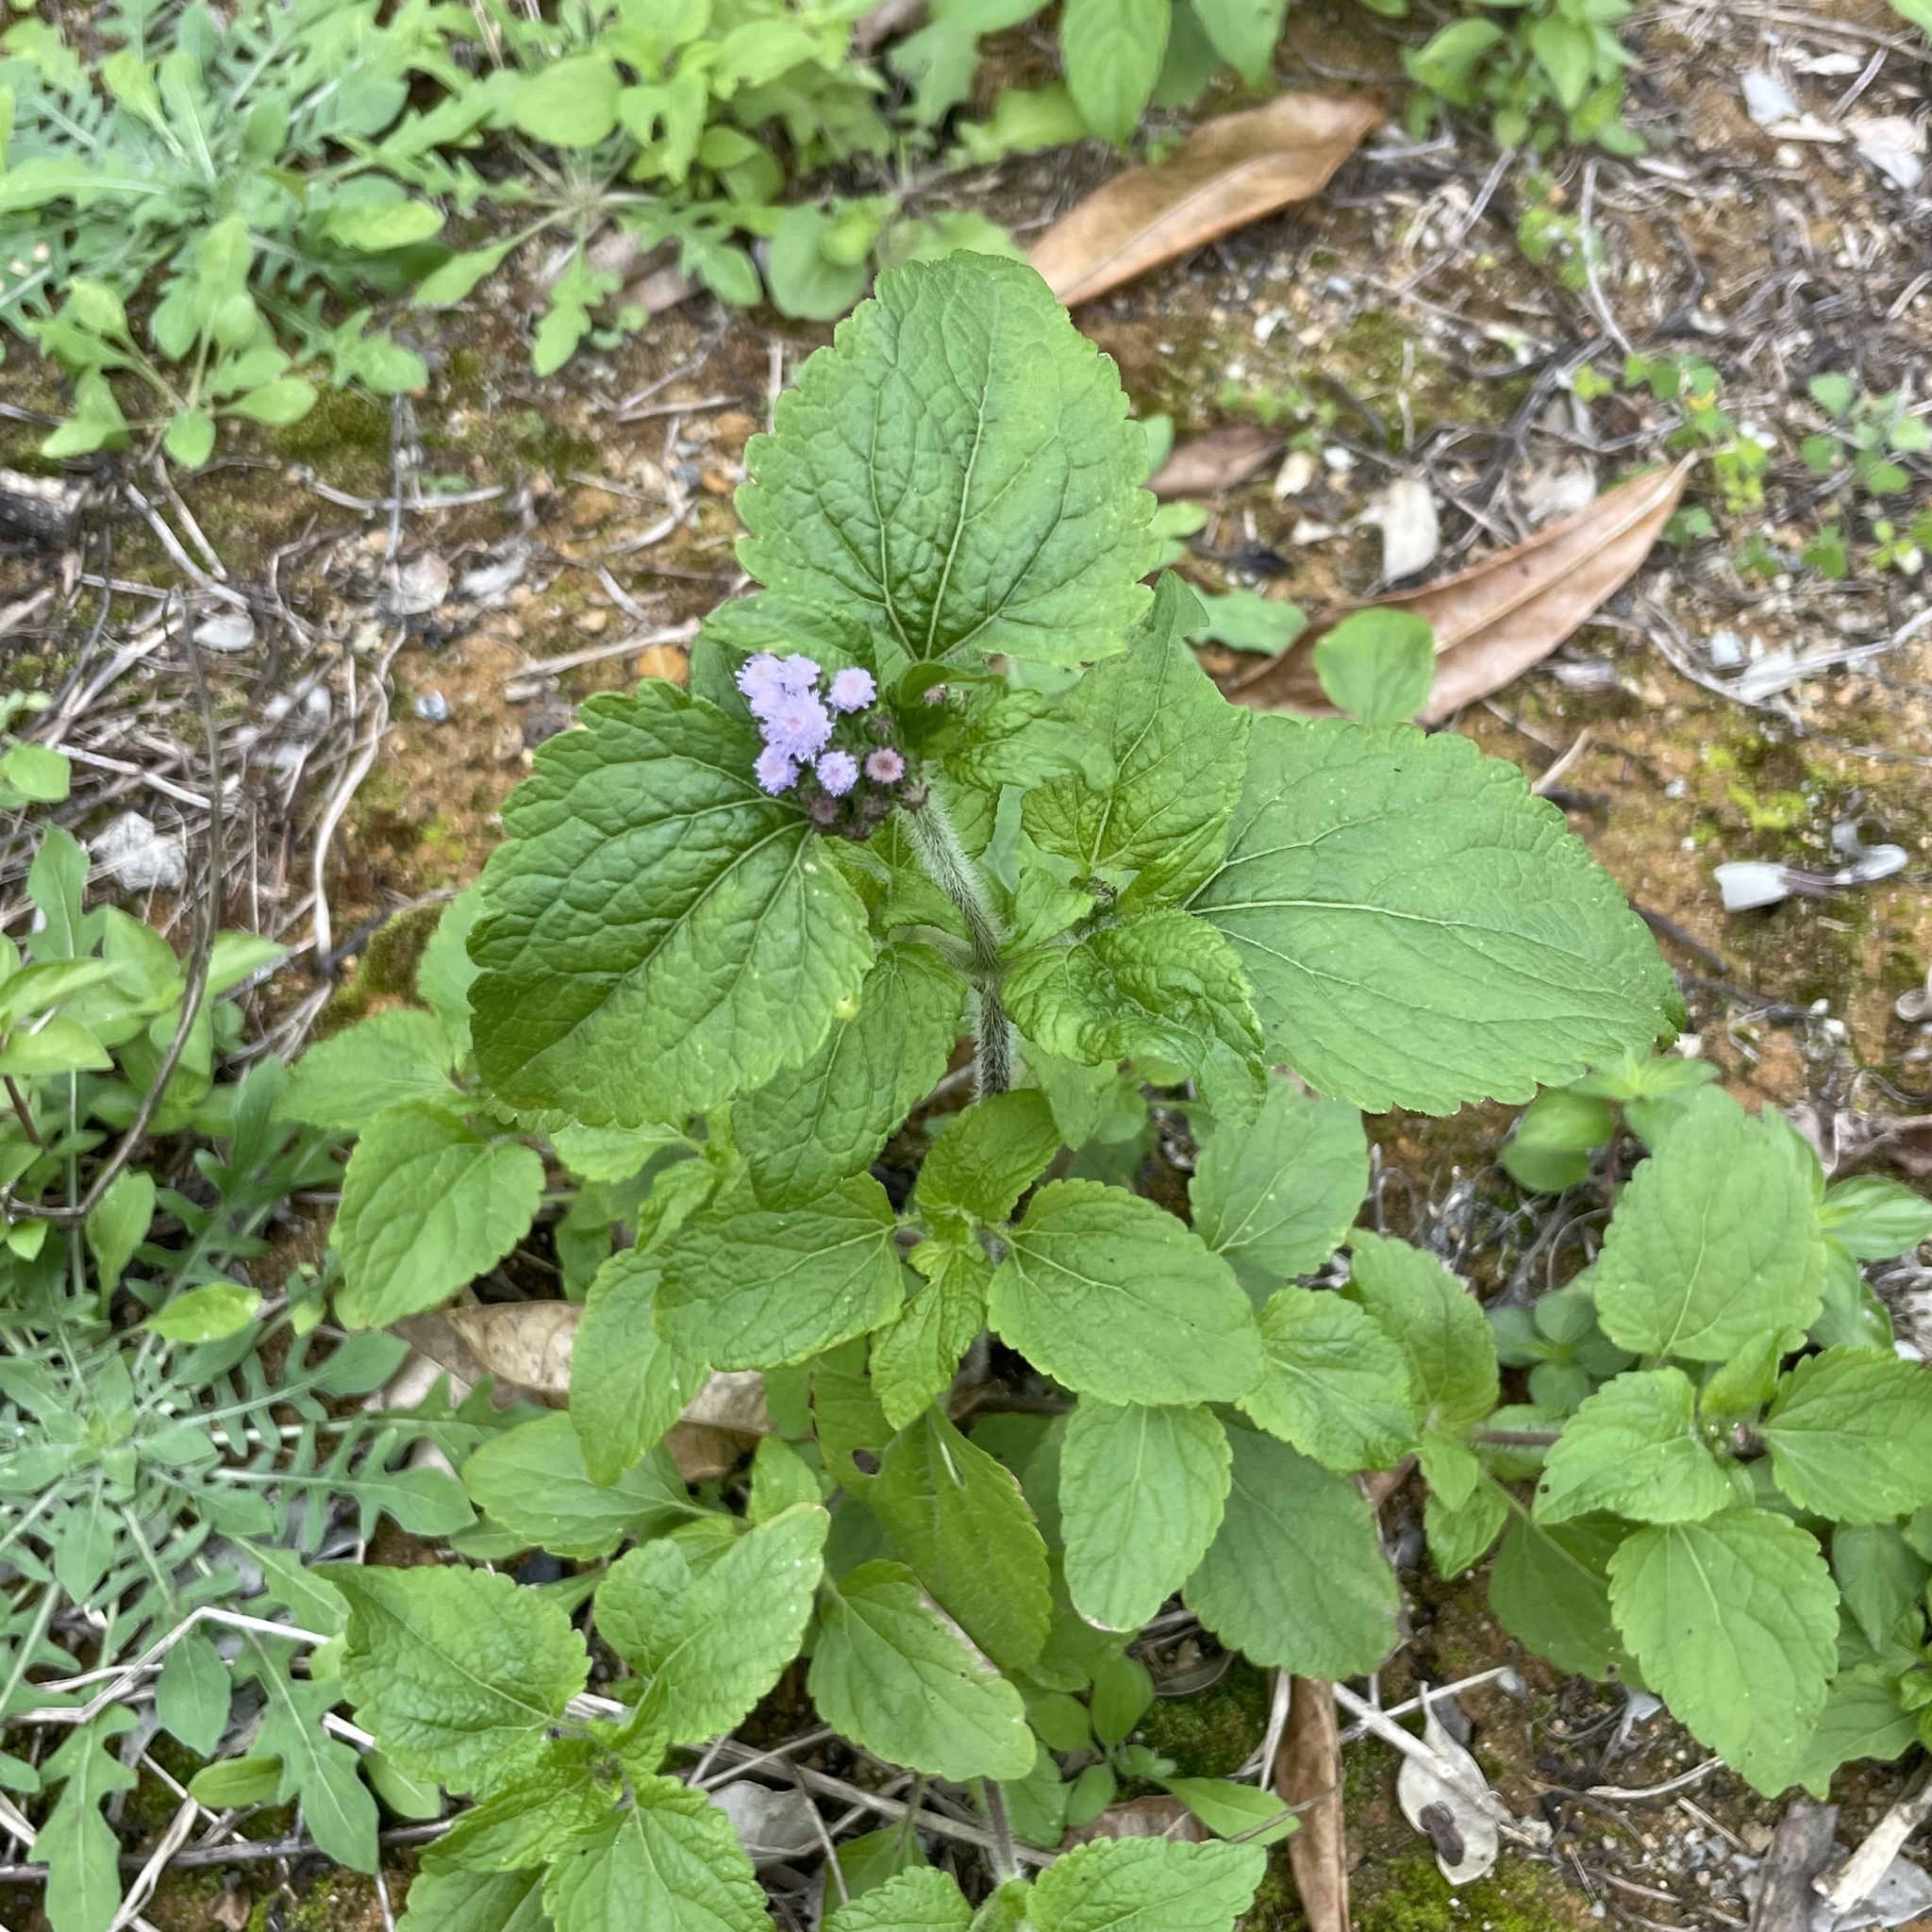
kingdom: Plantae
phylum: Tracheophyta
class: Magnoliopsida
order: Asterales
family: Asteraceae
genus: Ageratum
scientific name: Ageratum conyzoides
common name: Tropical whiteweed
